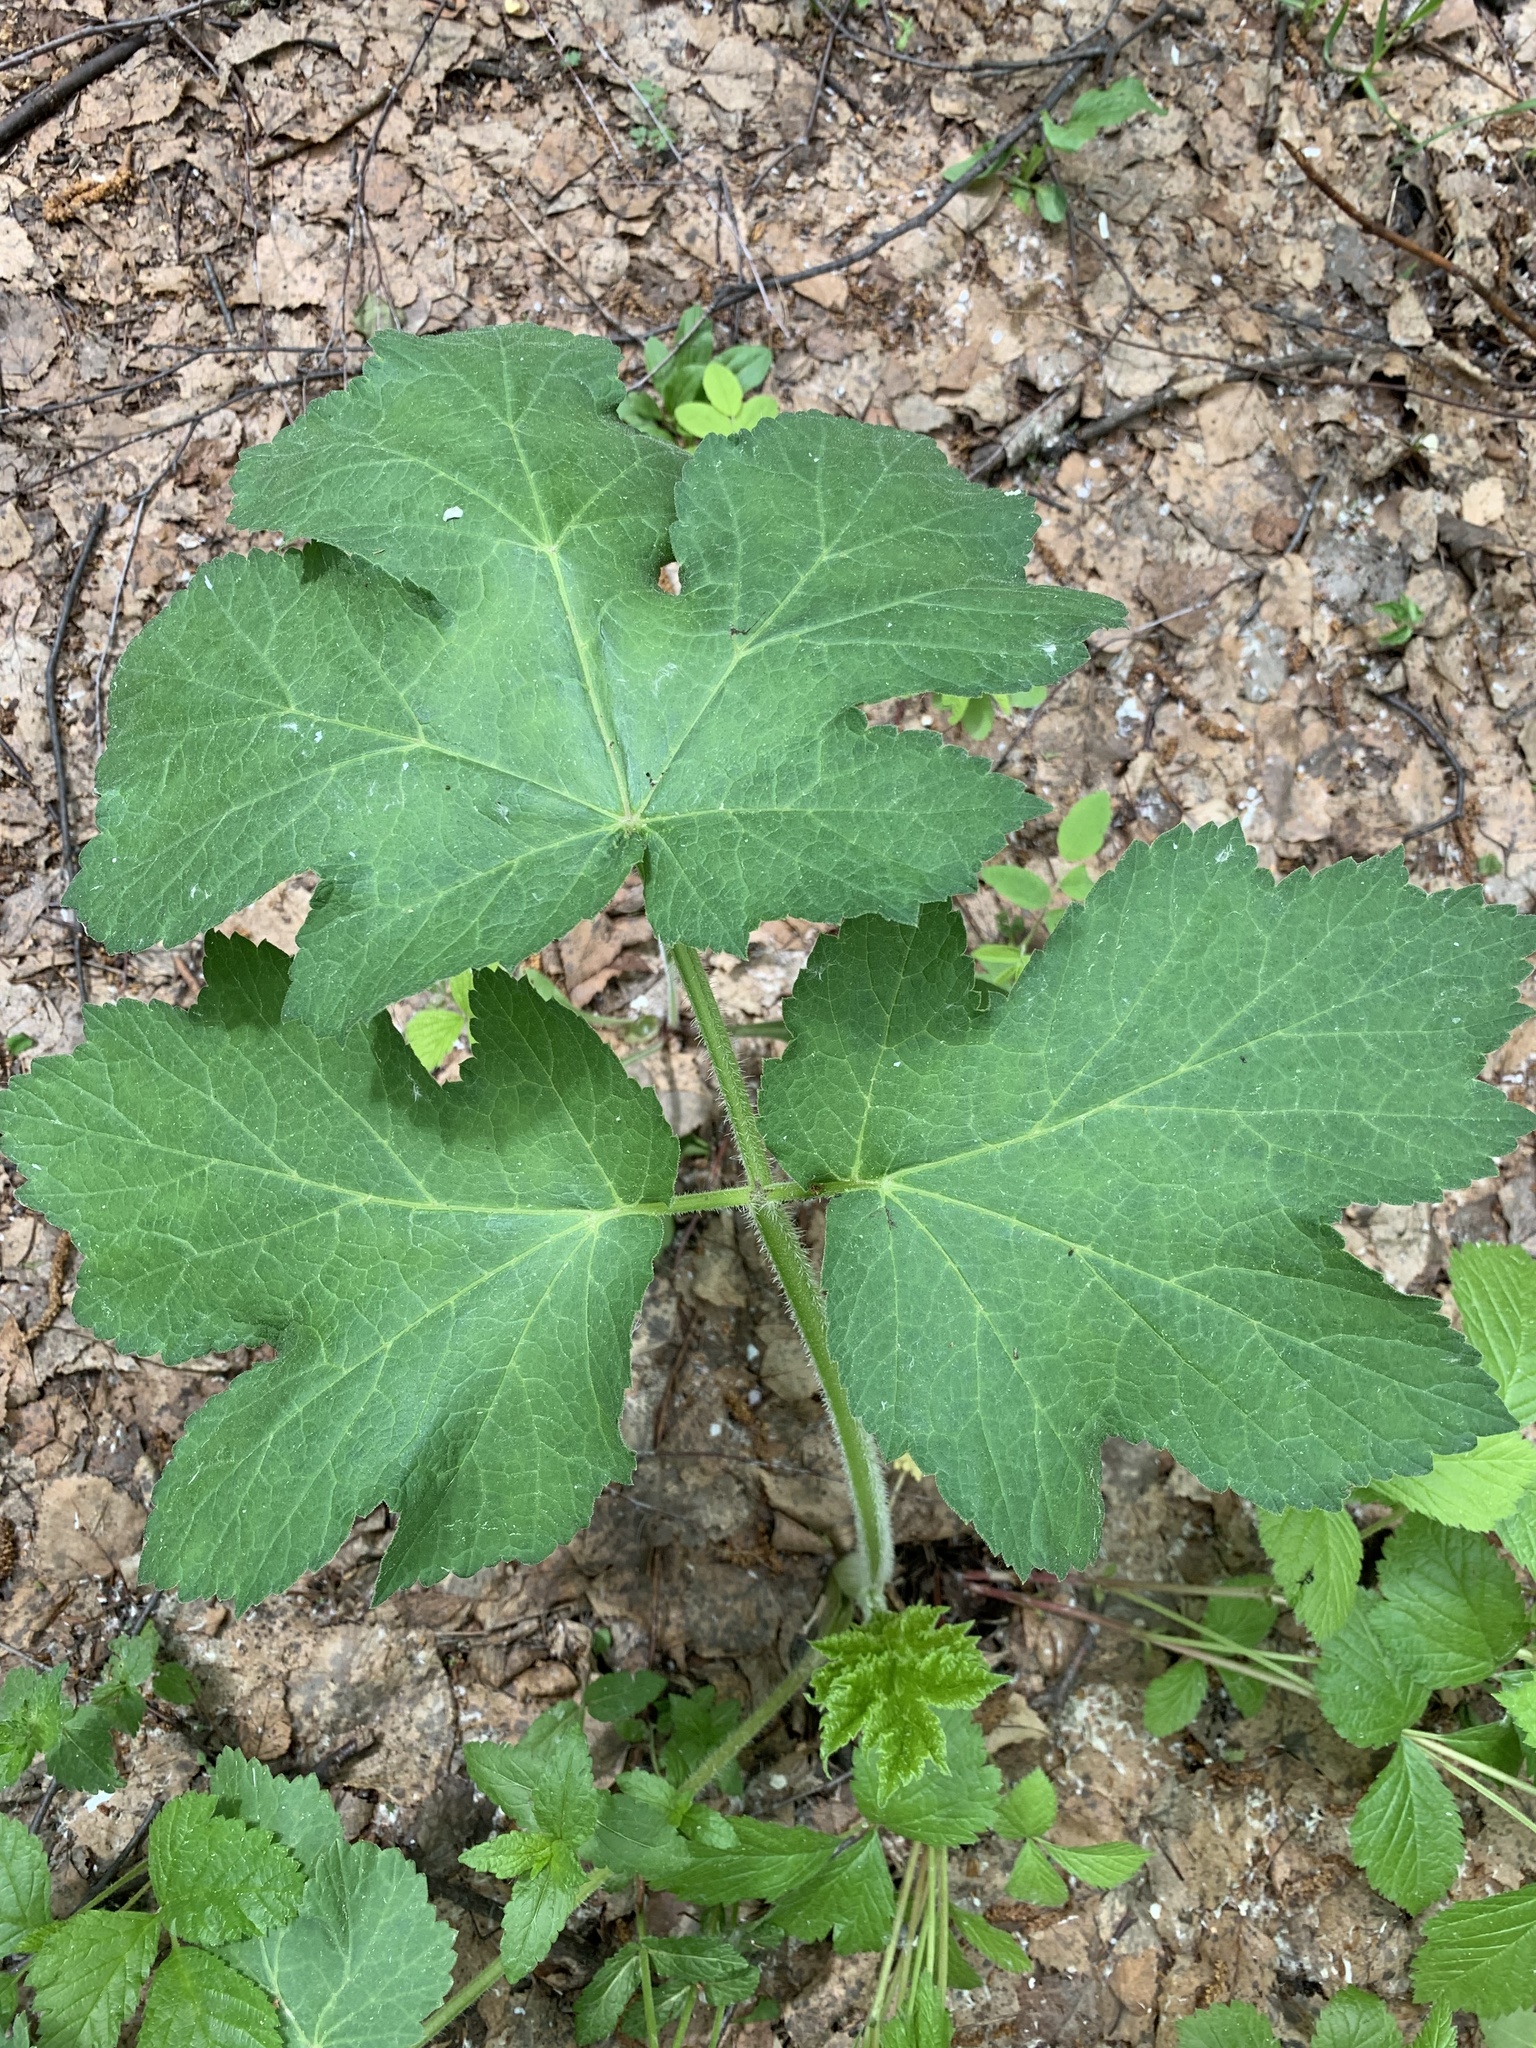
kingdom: Plantae
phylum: Tracheophyta
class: Magnoliopsida
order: Apiales
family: Apiaceae
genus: Heracleum
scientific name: Heracleum sphondylium
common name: Hogweed
